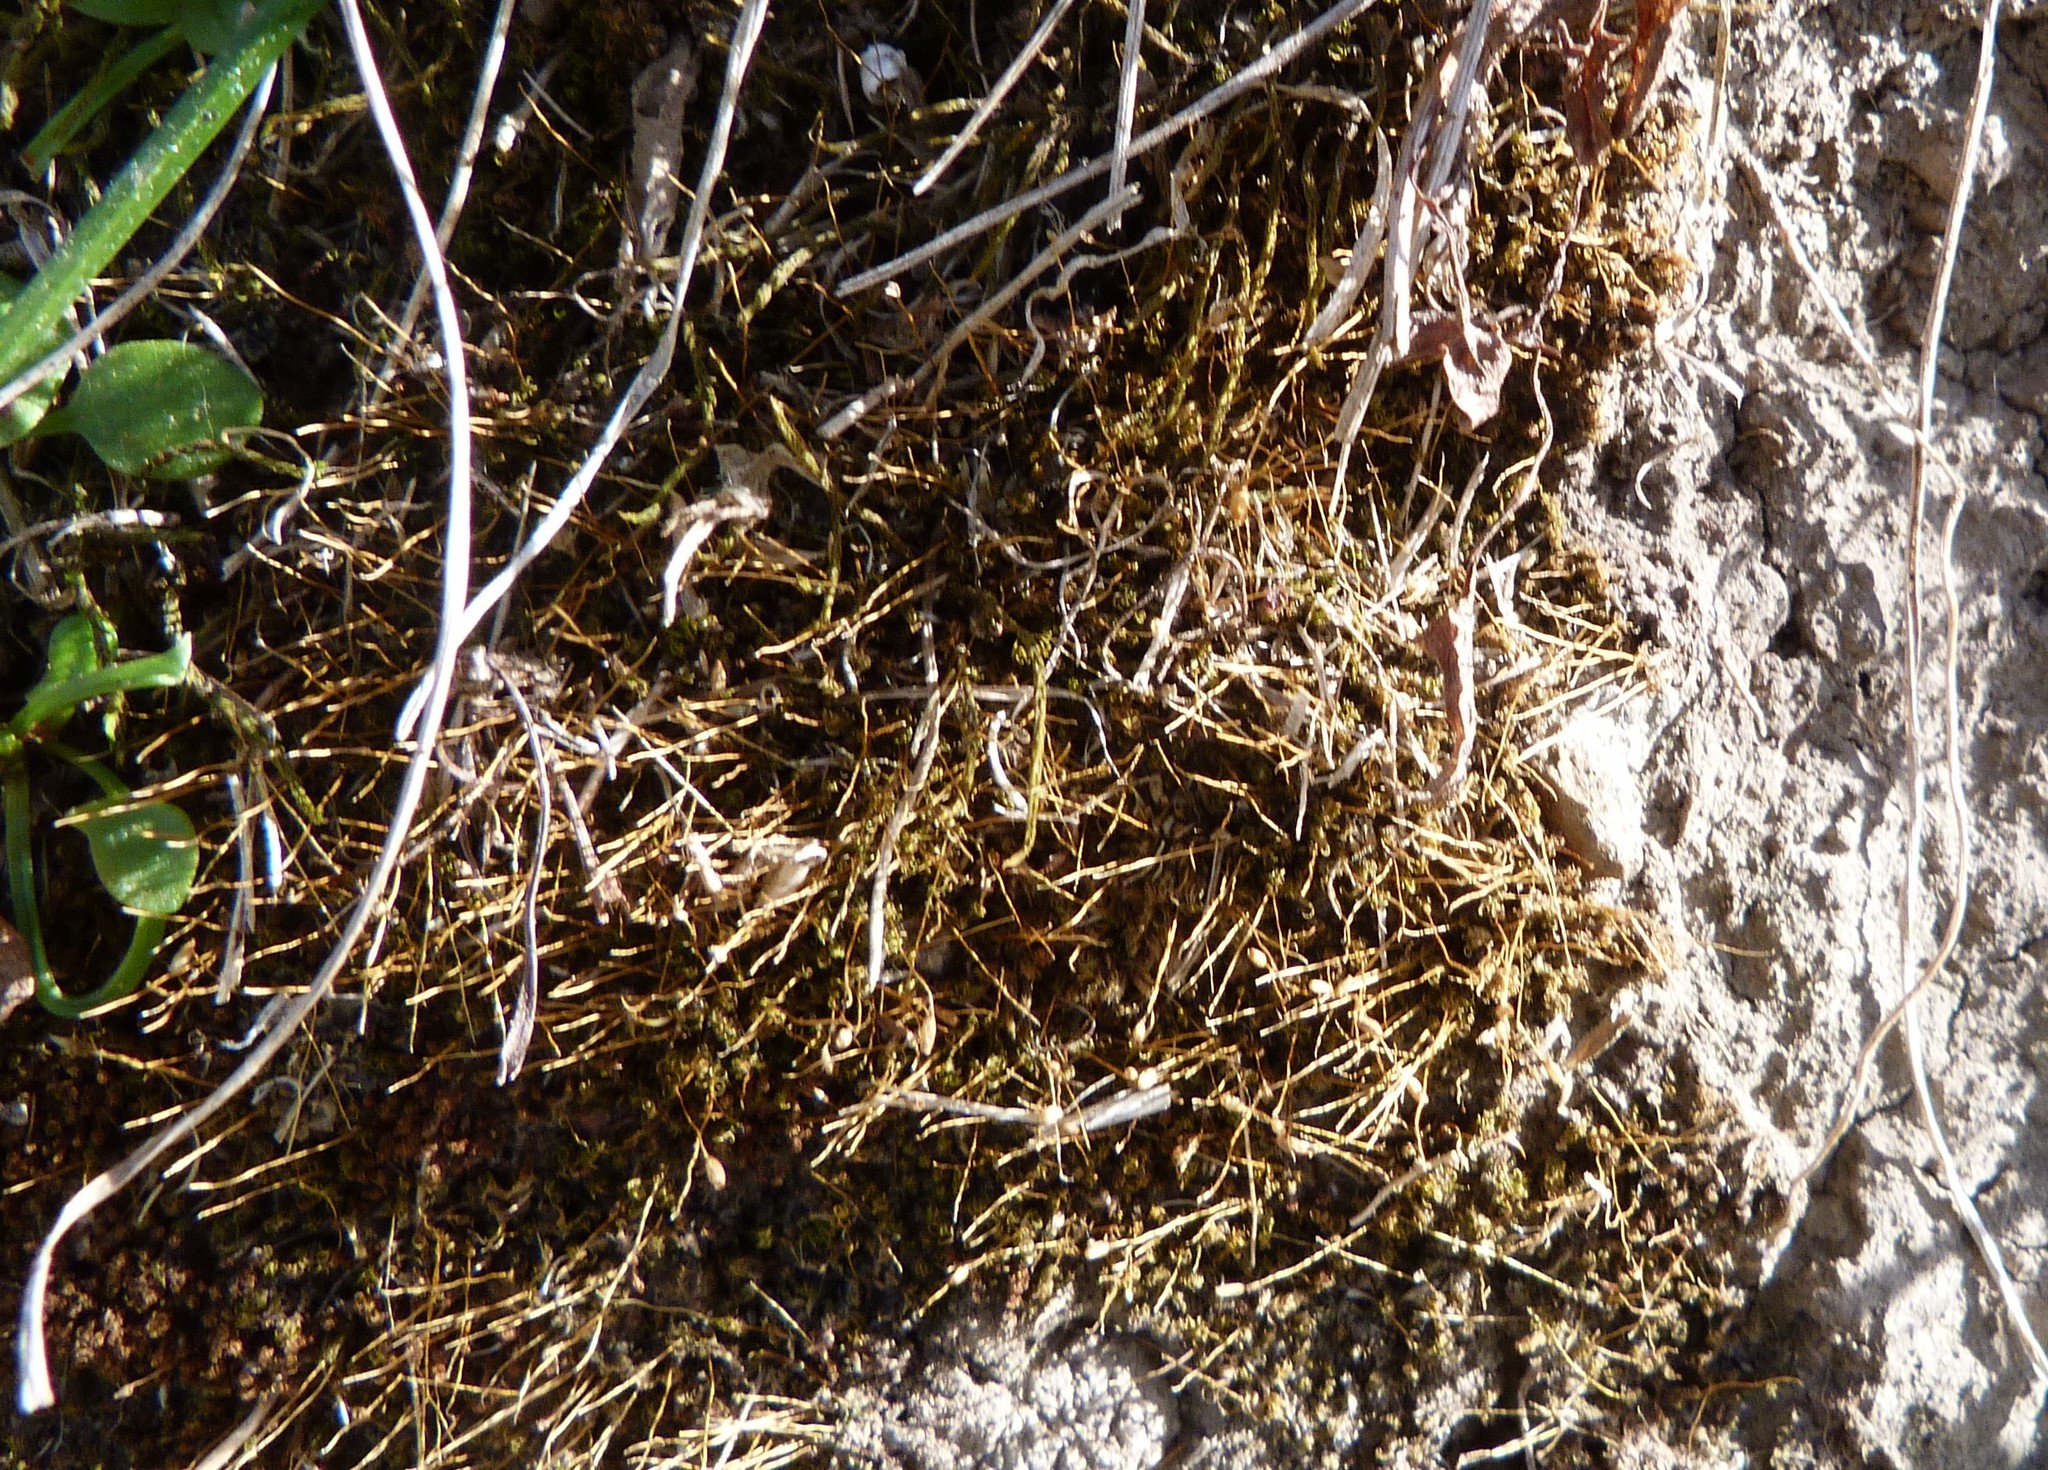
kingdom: Plantae
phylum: Bryophyta
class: Bryopsida
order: Pottiales
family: Pottiaceae
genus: Triquetrella
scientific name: Triquetrella papillata
